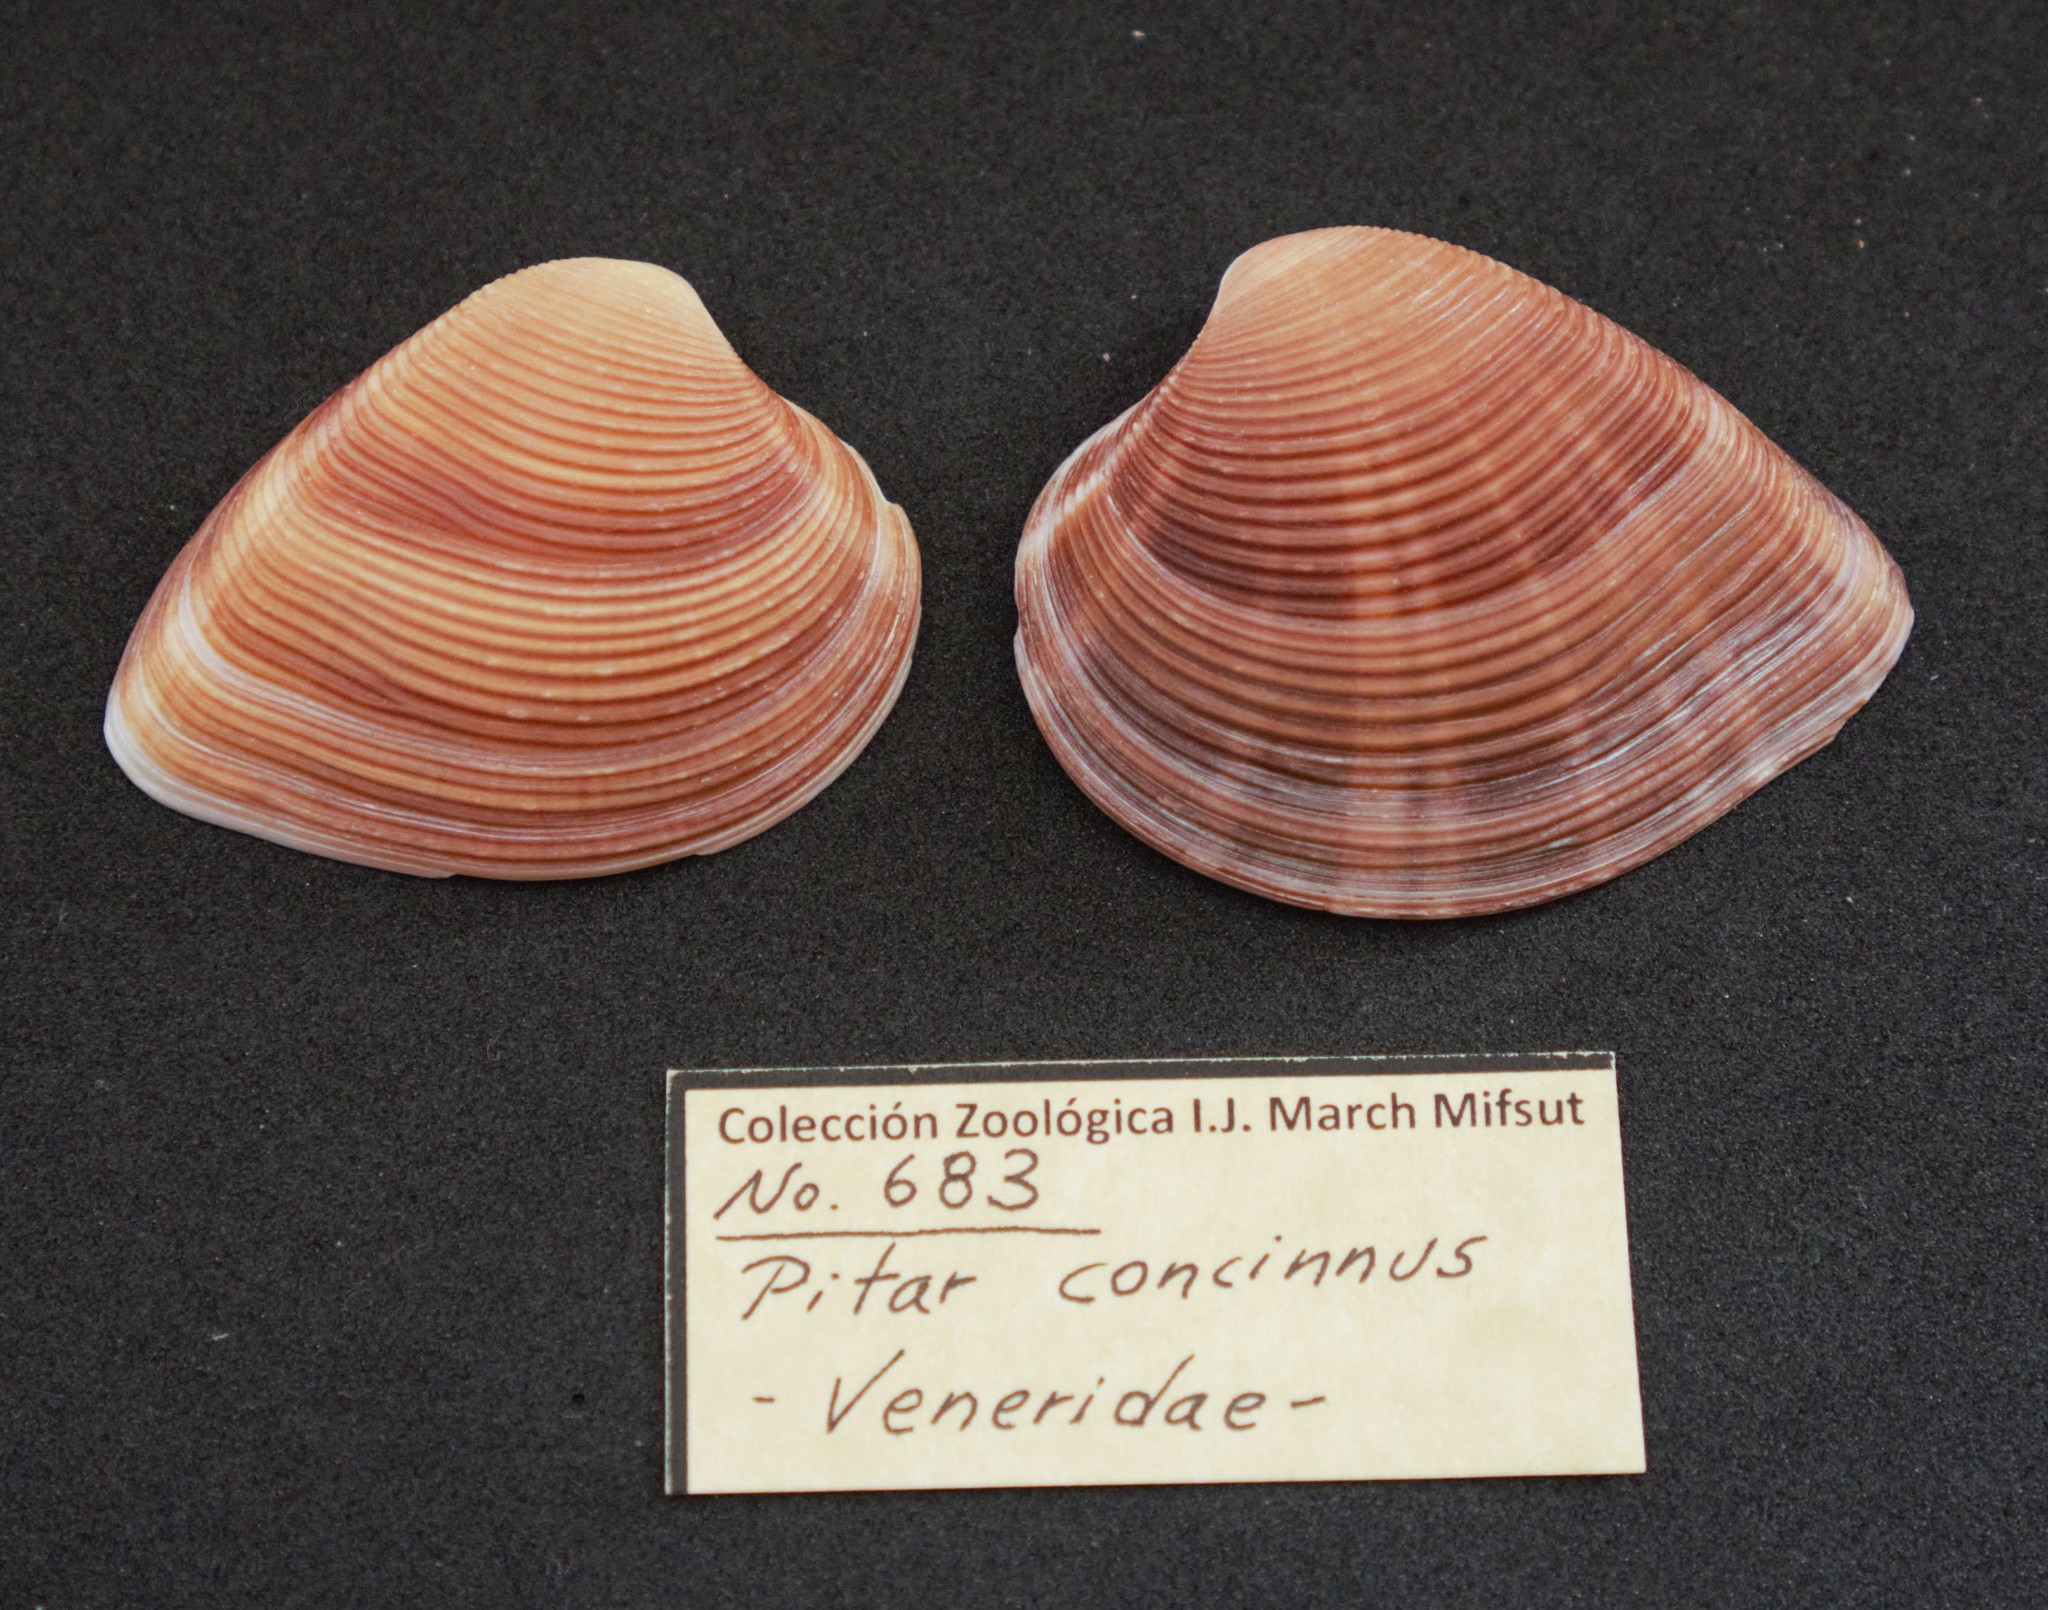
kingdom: Animalia
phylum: Mollusca
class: Bivalvia
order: Venerida
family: Veneridae
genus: Lamelliconcha
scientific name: Lamelliconcha concinna
